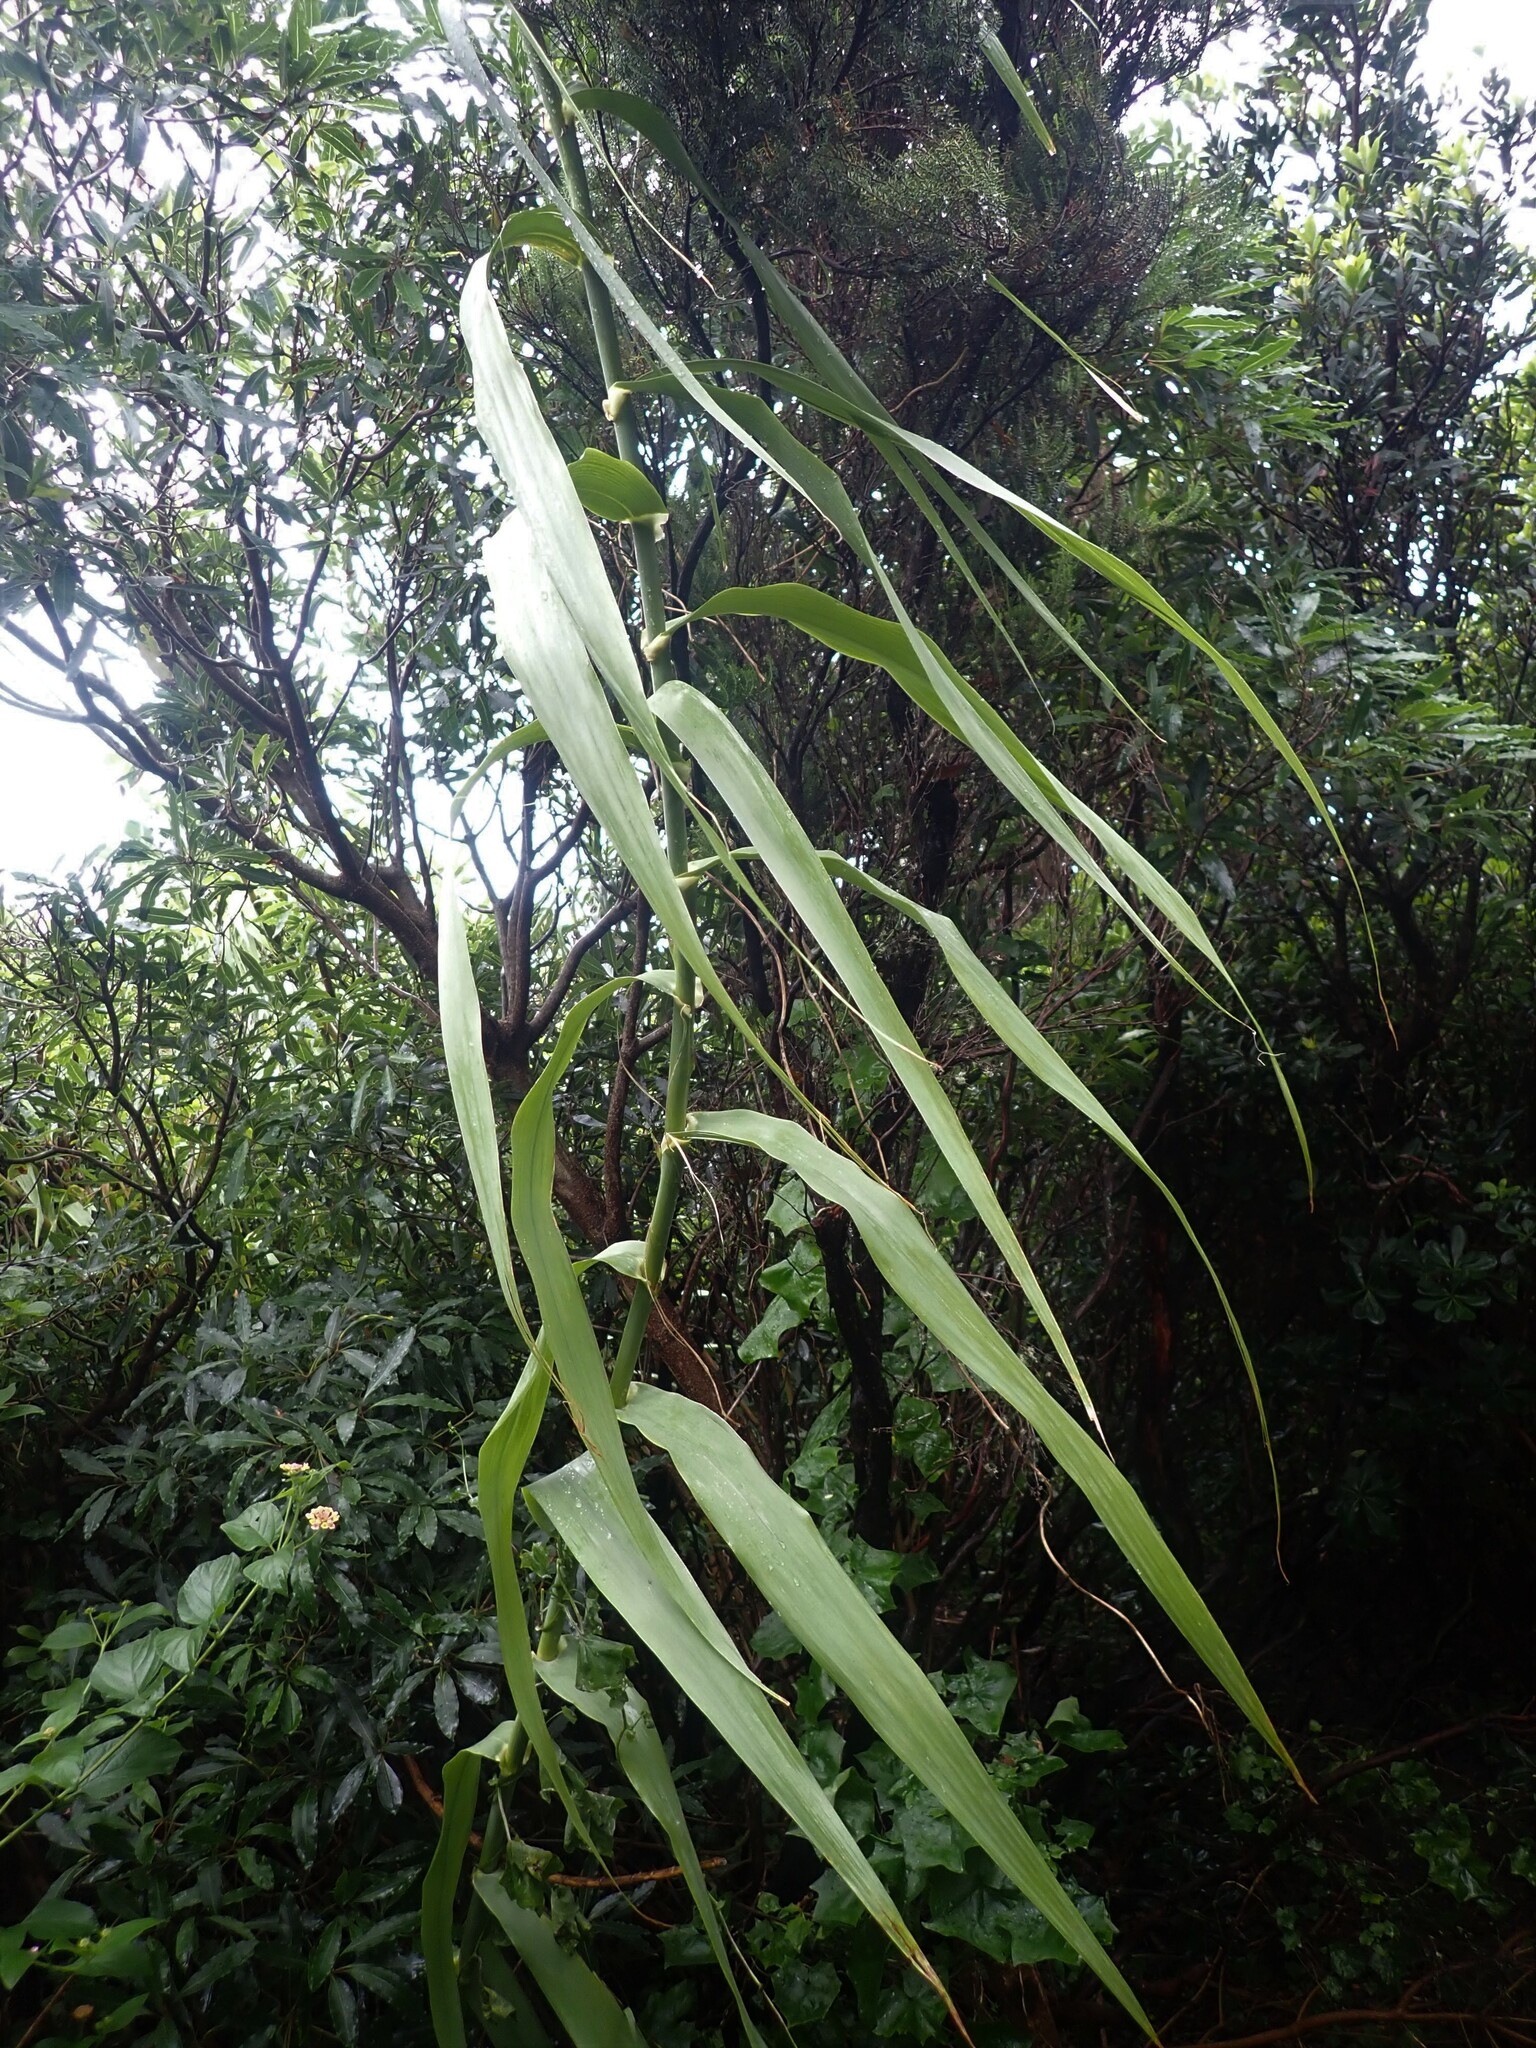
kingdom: Plantae
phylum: Tracheophyta
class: Liliopsida
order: Poales
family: Poaceae
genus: Arundo
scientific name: Arundo donax
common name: Giant reed
